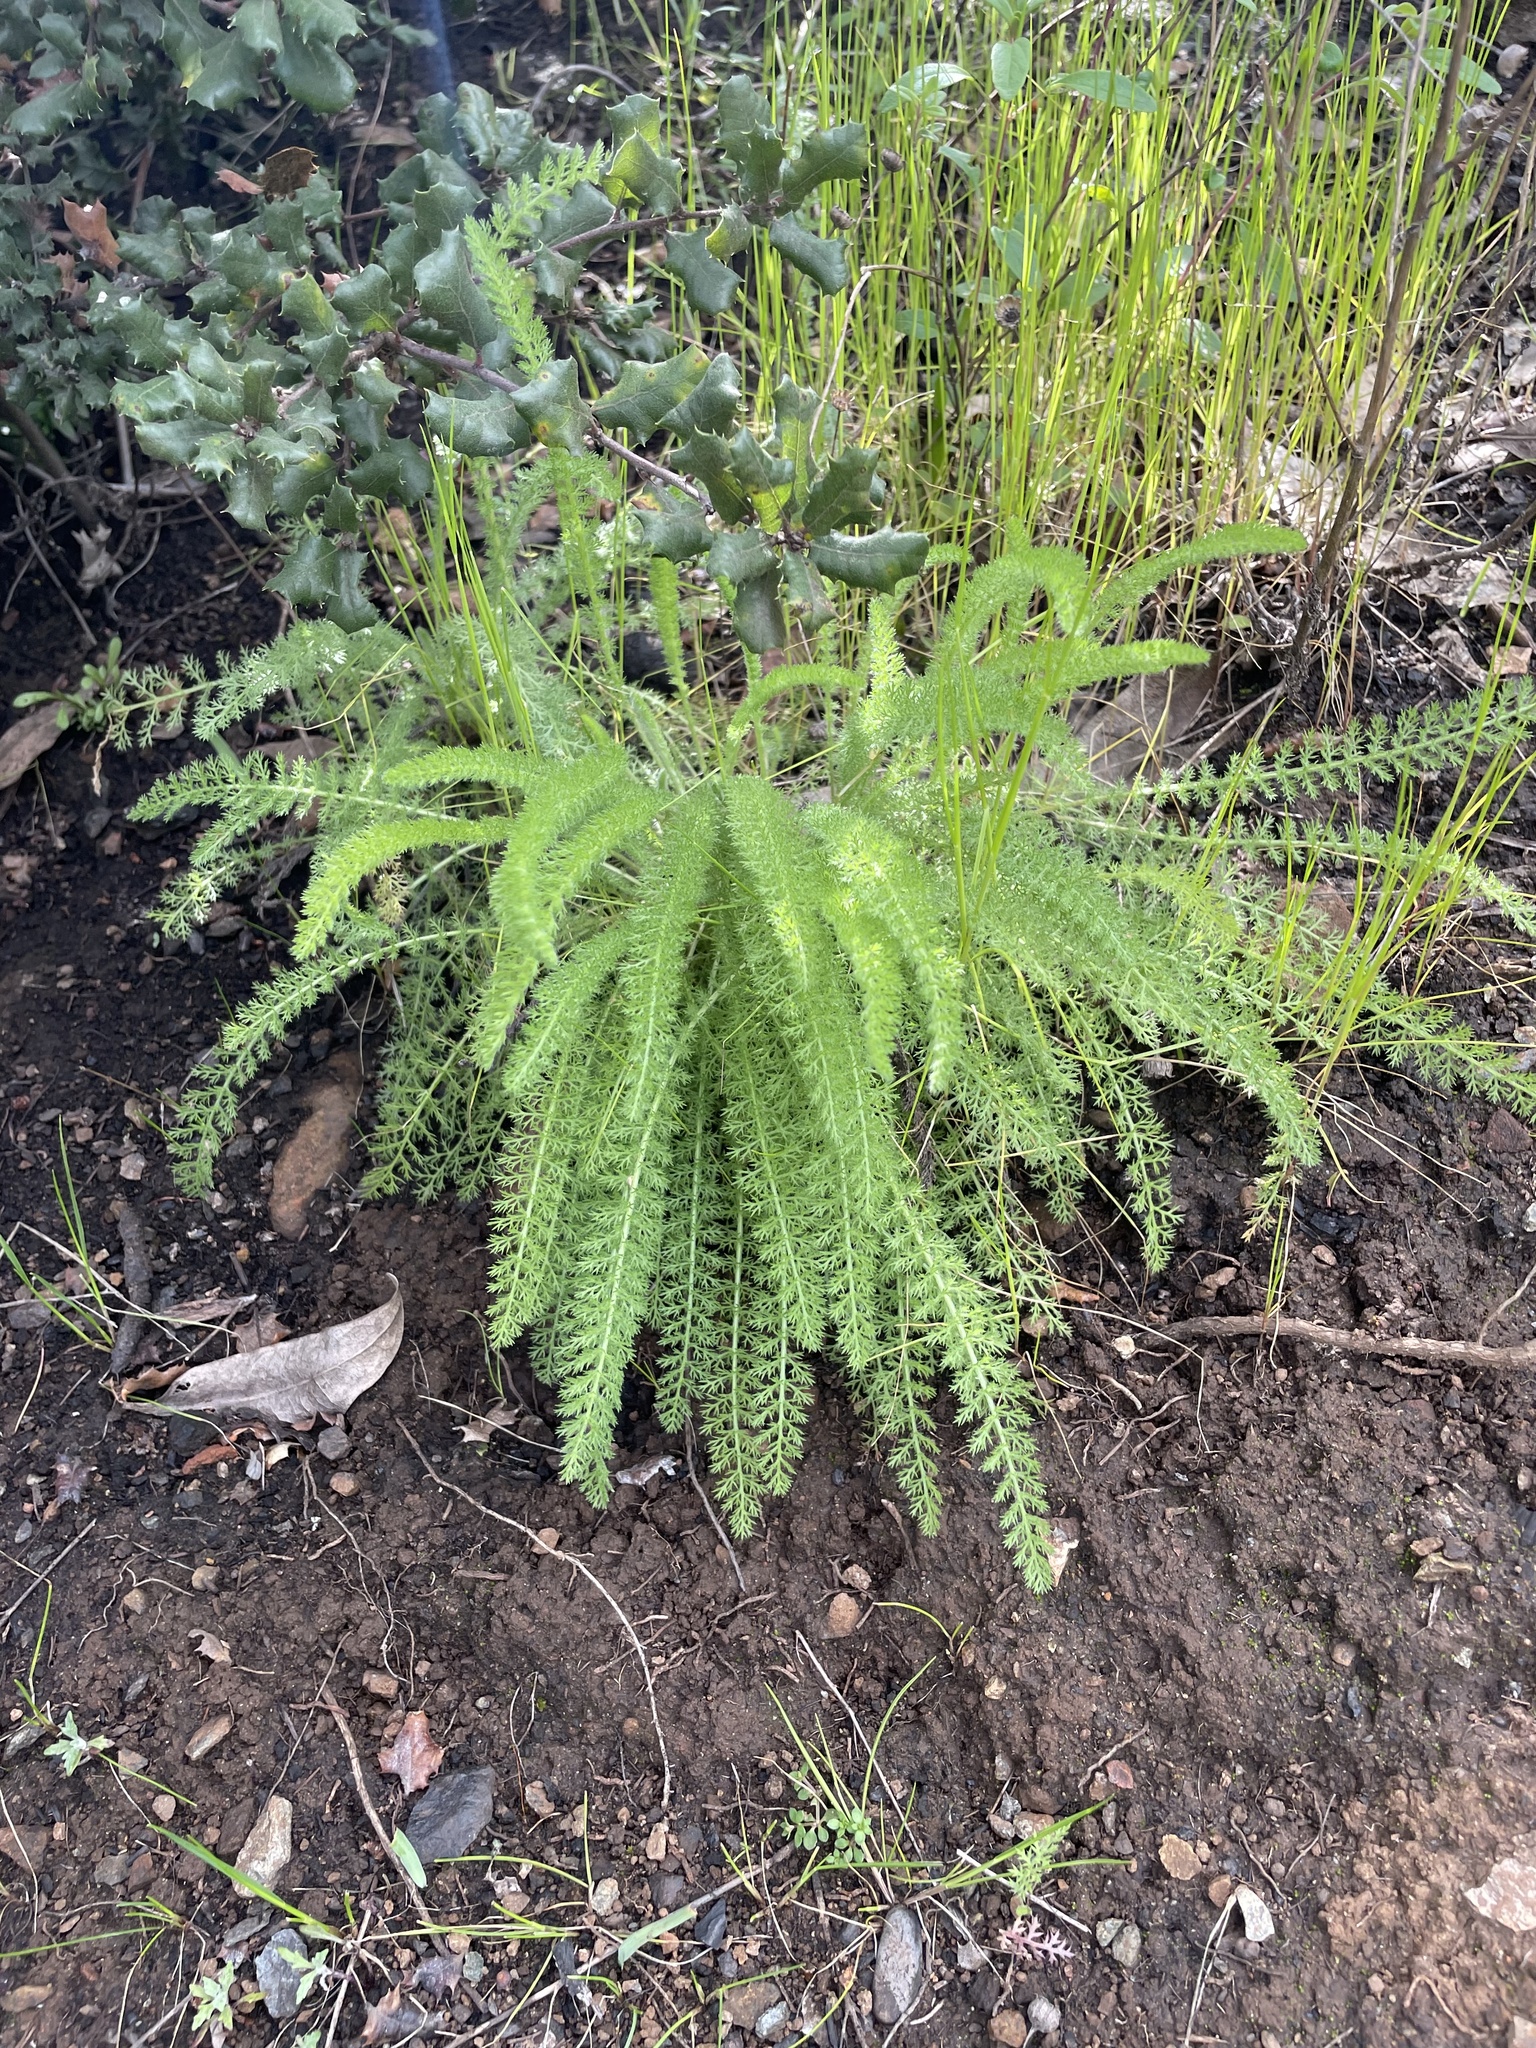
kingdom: Plantae
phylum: Tracheophyta
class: Magnoliopsida
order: Asterales
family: Asteraceae
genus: Achillea
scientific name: Achillea millefolium
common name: Yarrow
